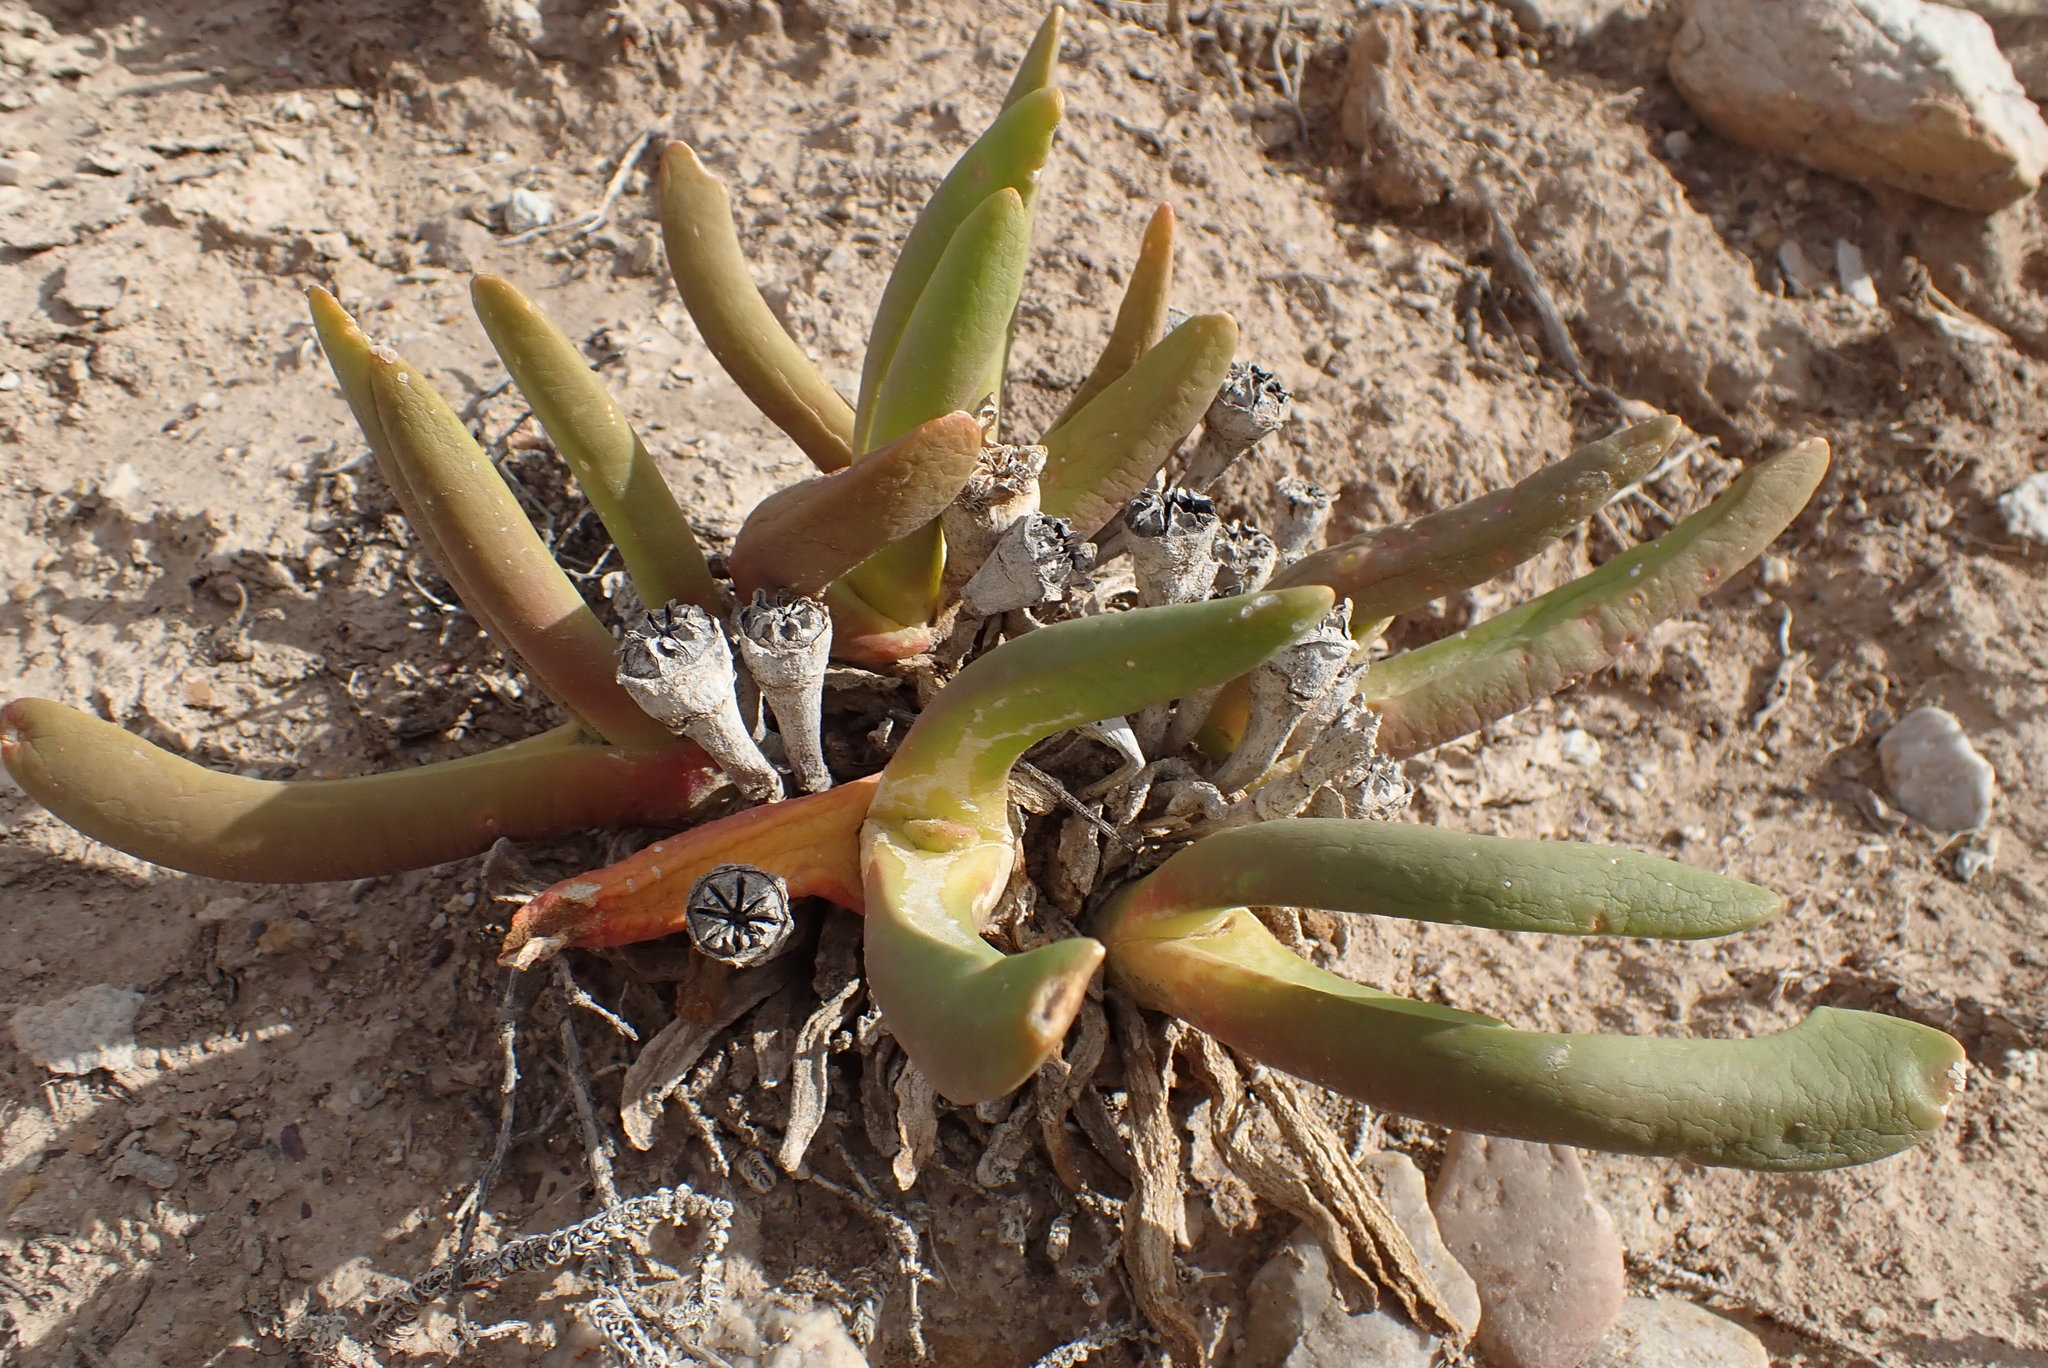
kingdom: Plantae
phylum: Tracheophyta
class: Magnoliopsida
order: Caryophyllales
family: Aizoaceae
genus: Glottiphyllum
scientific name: Glottiphyllum regium
